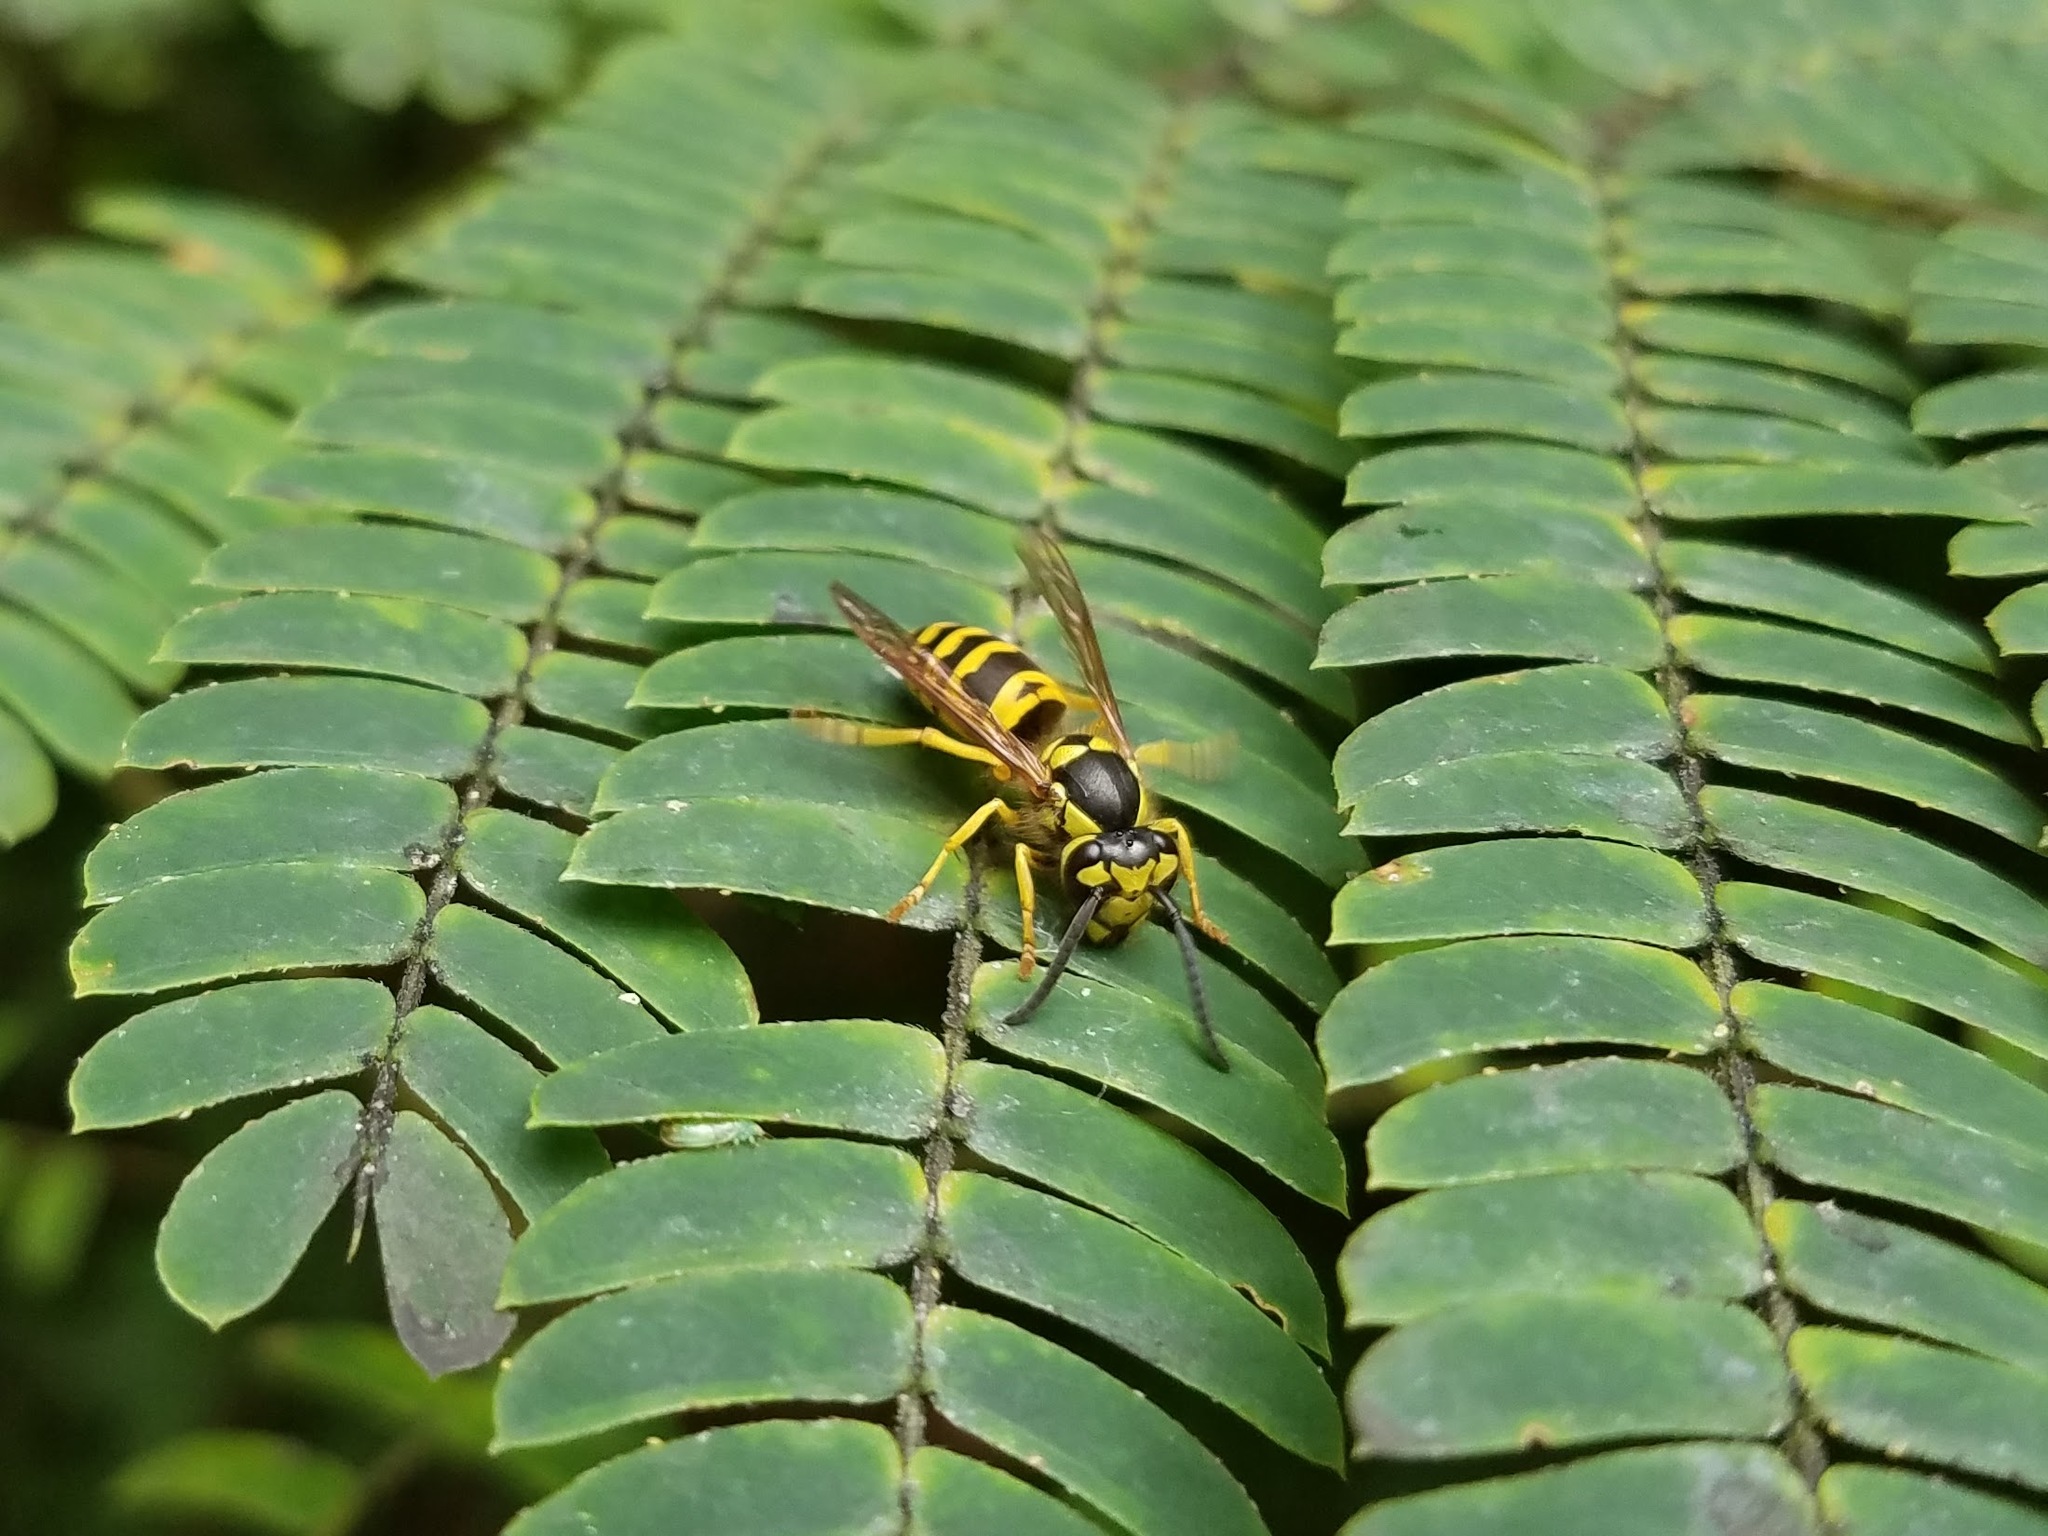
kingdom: Animalia
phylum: Arthropoda
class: Insecta
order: Hymenoptera
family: Vespidae
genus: Vespula
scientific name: Vespula maculifrons
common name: Eastern yellowjacket
